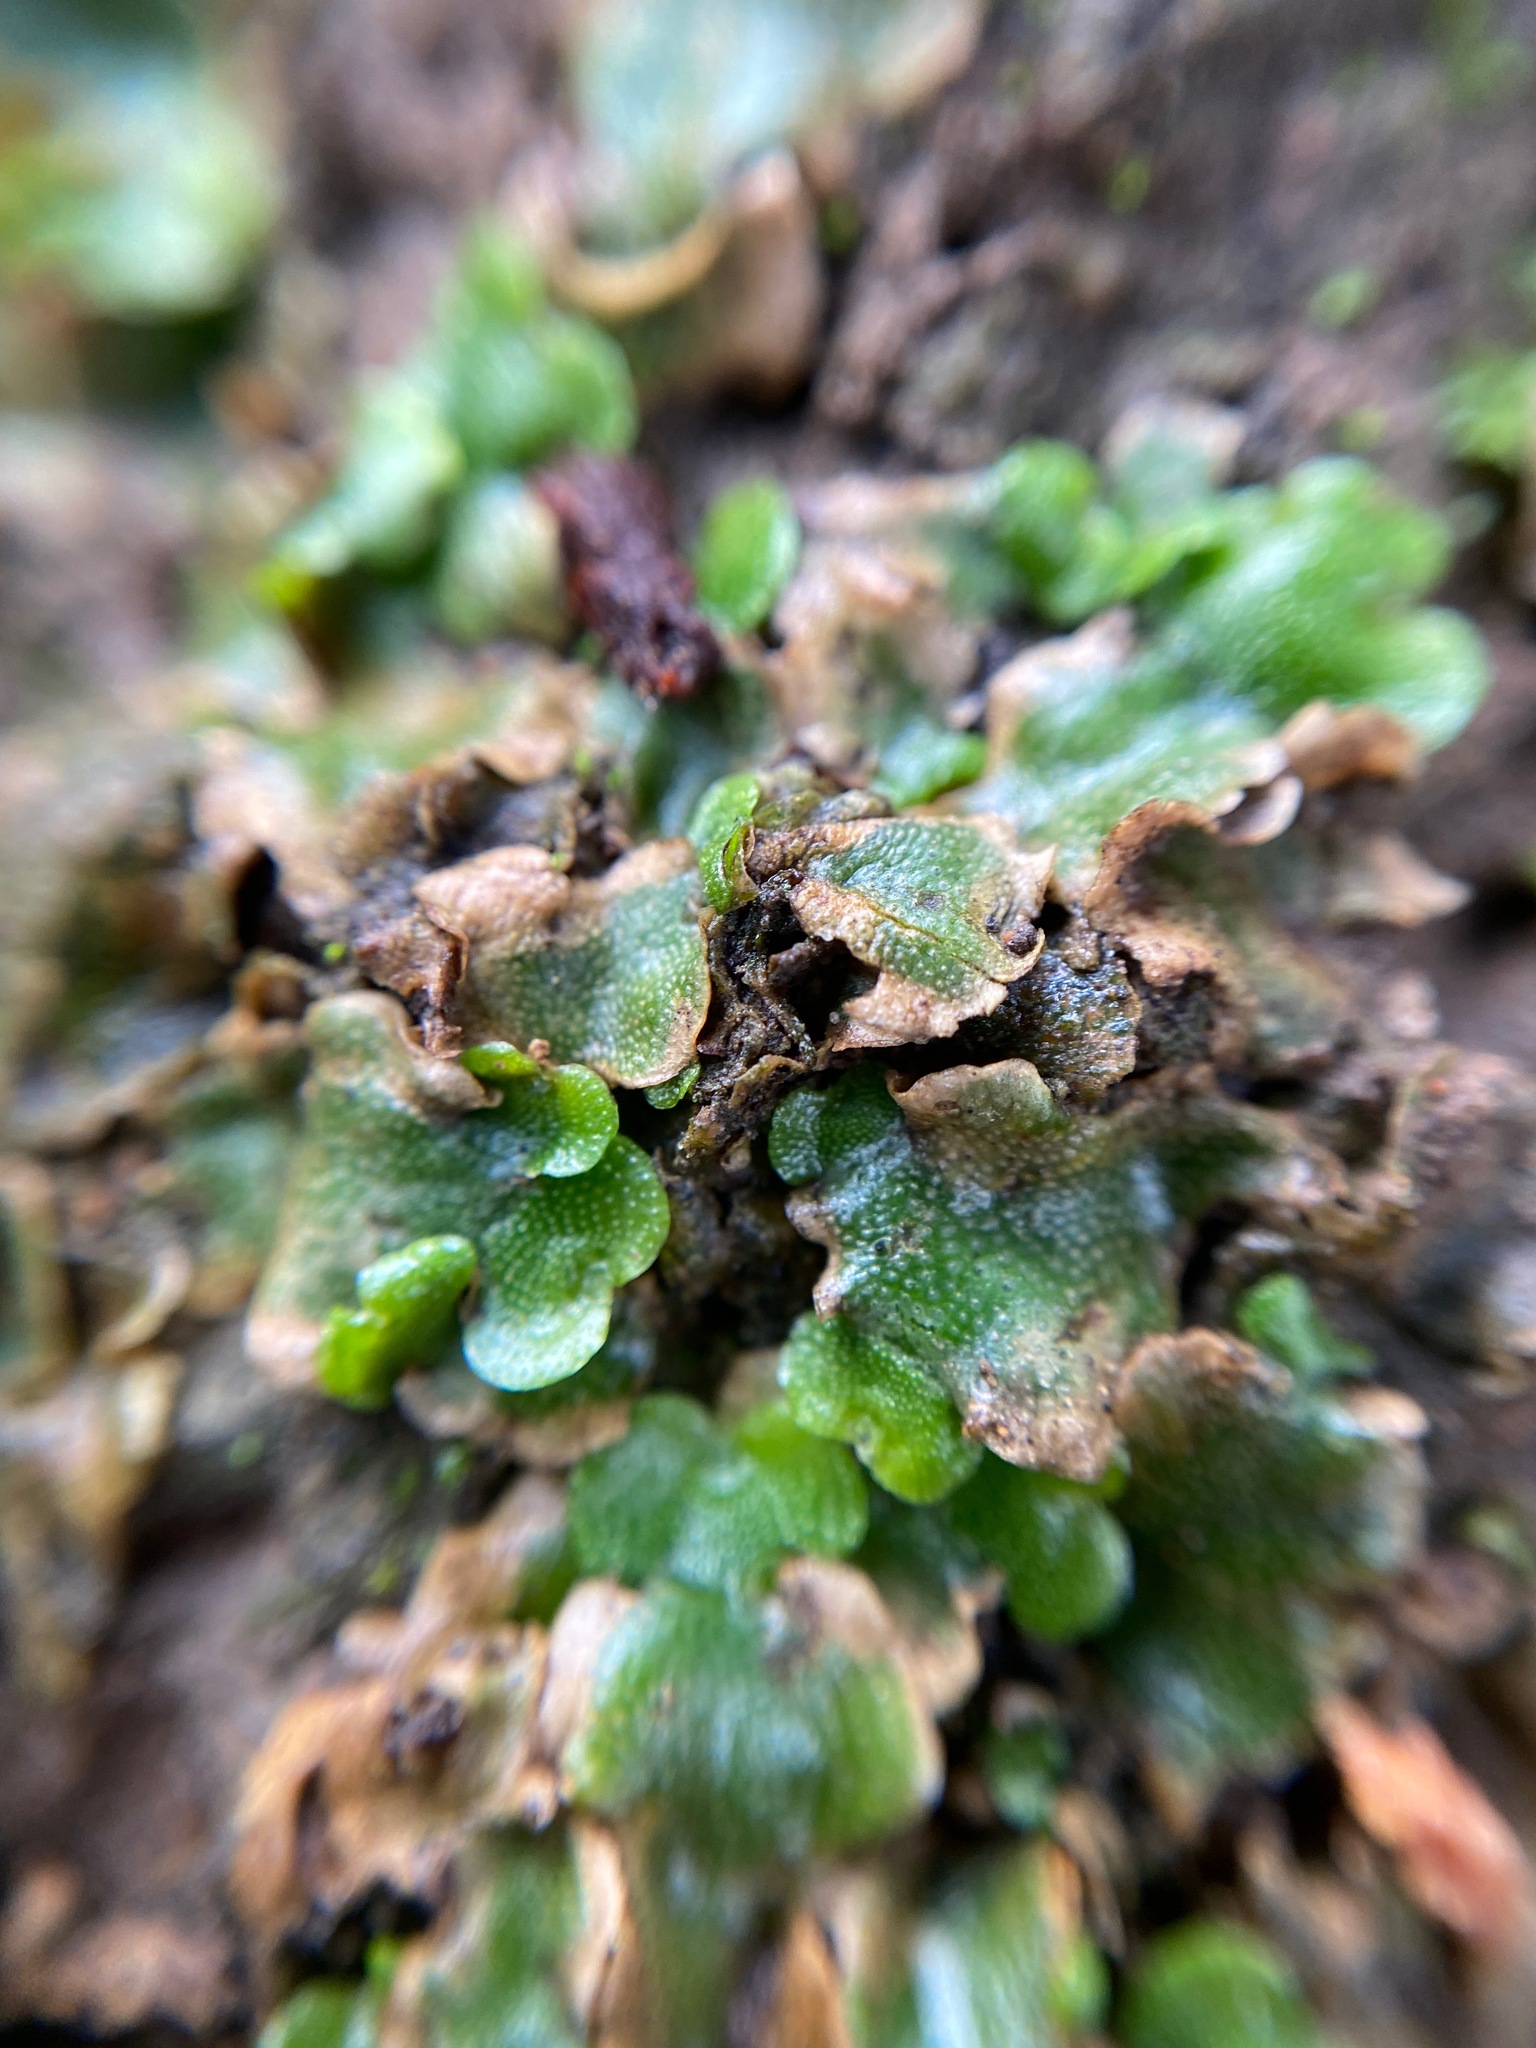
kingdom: Plantae
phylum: Marchantiophyta
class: Marchantiopsida
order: Lunulariales
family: Lunulariaceae
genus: Lunularia
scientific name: Lunularia cruciata
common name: Crescent-cup liverwort
